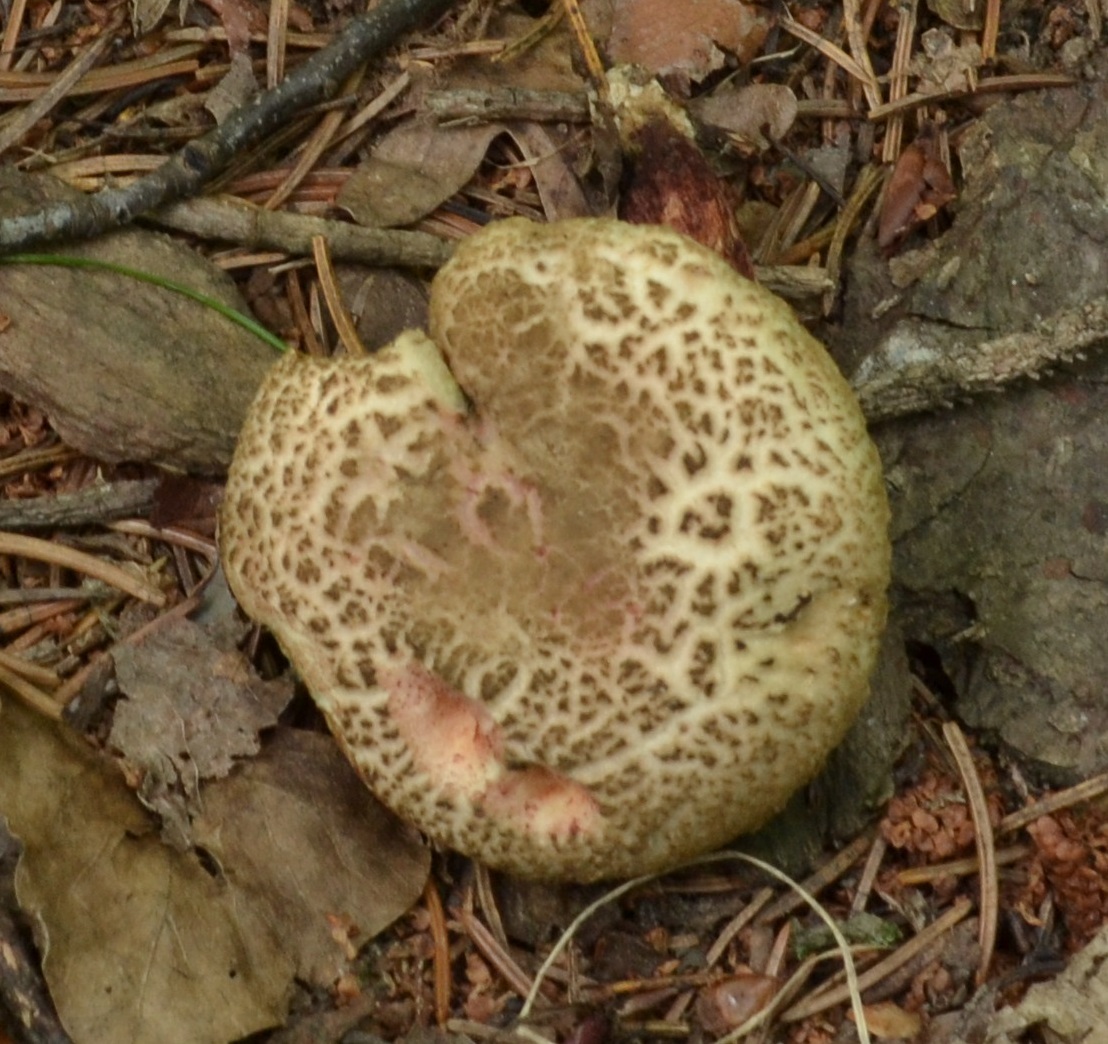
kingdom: Fungi
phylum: Basidiomycota
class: Agaricomycetes
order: Boletales
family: Boletaceae
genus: Xerocomellus
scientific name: Xerocomellus chrysenteron
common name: Red-cracking bolete
